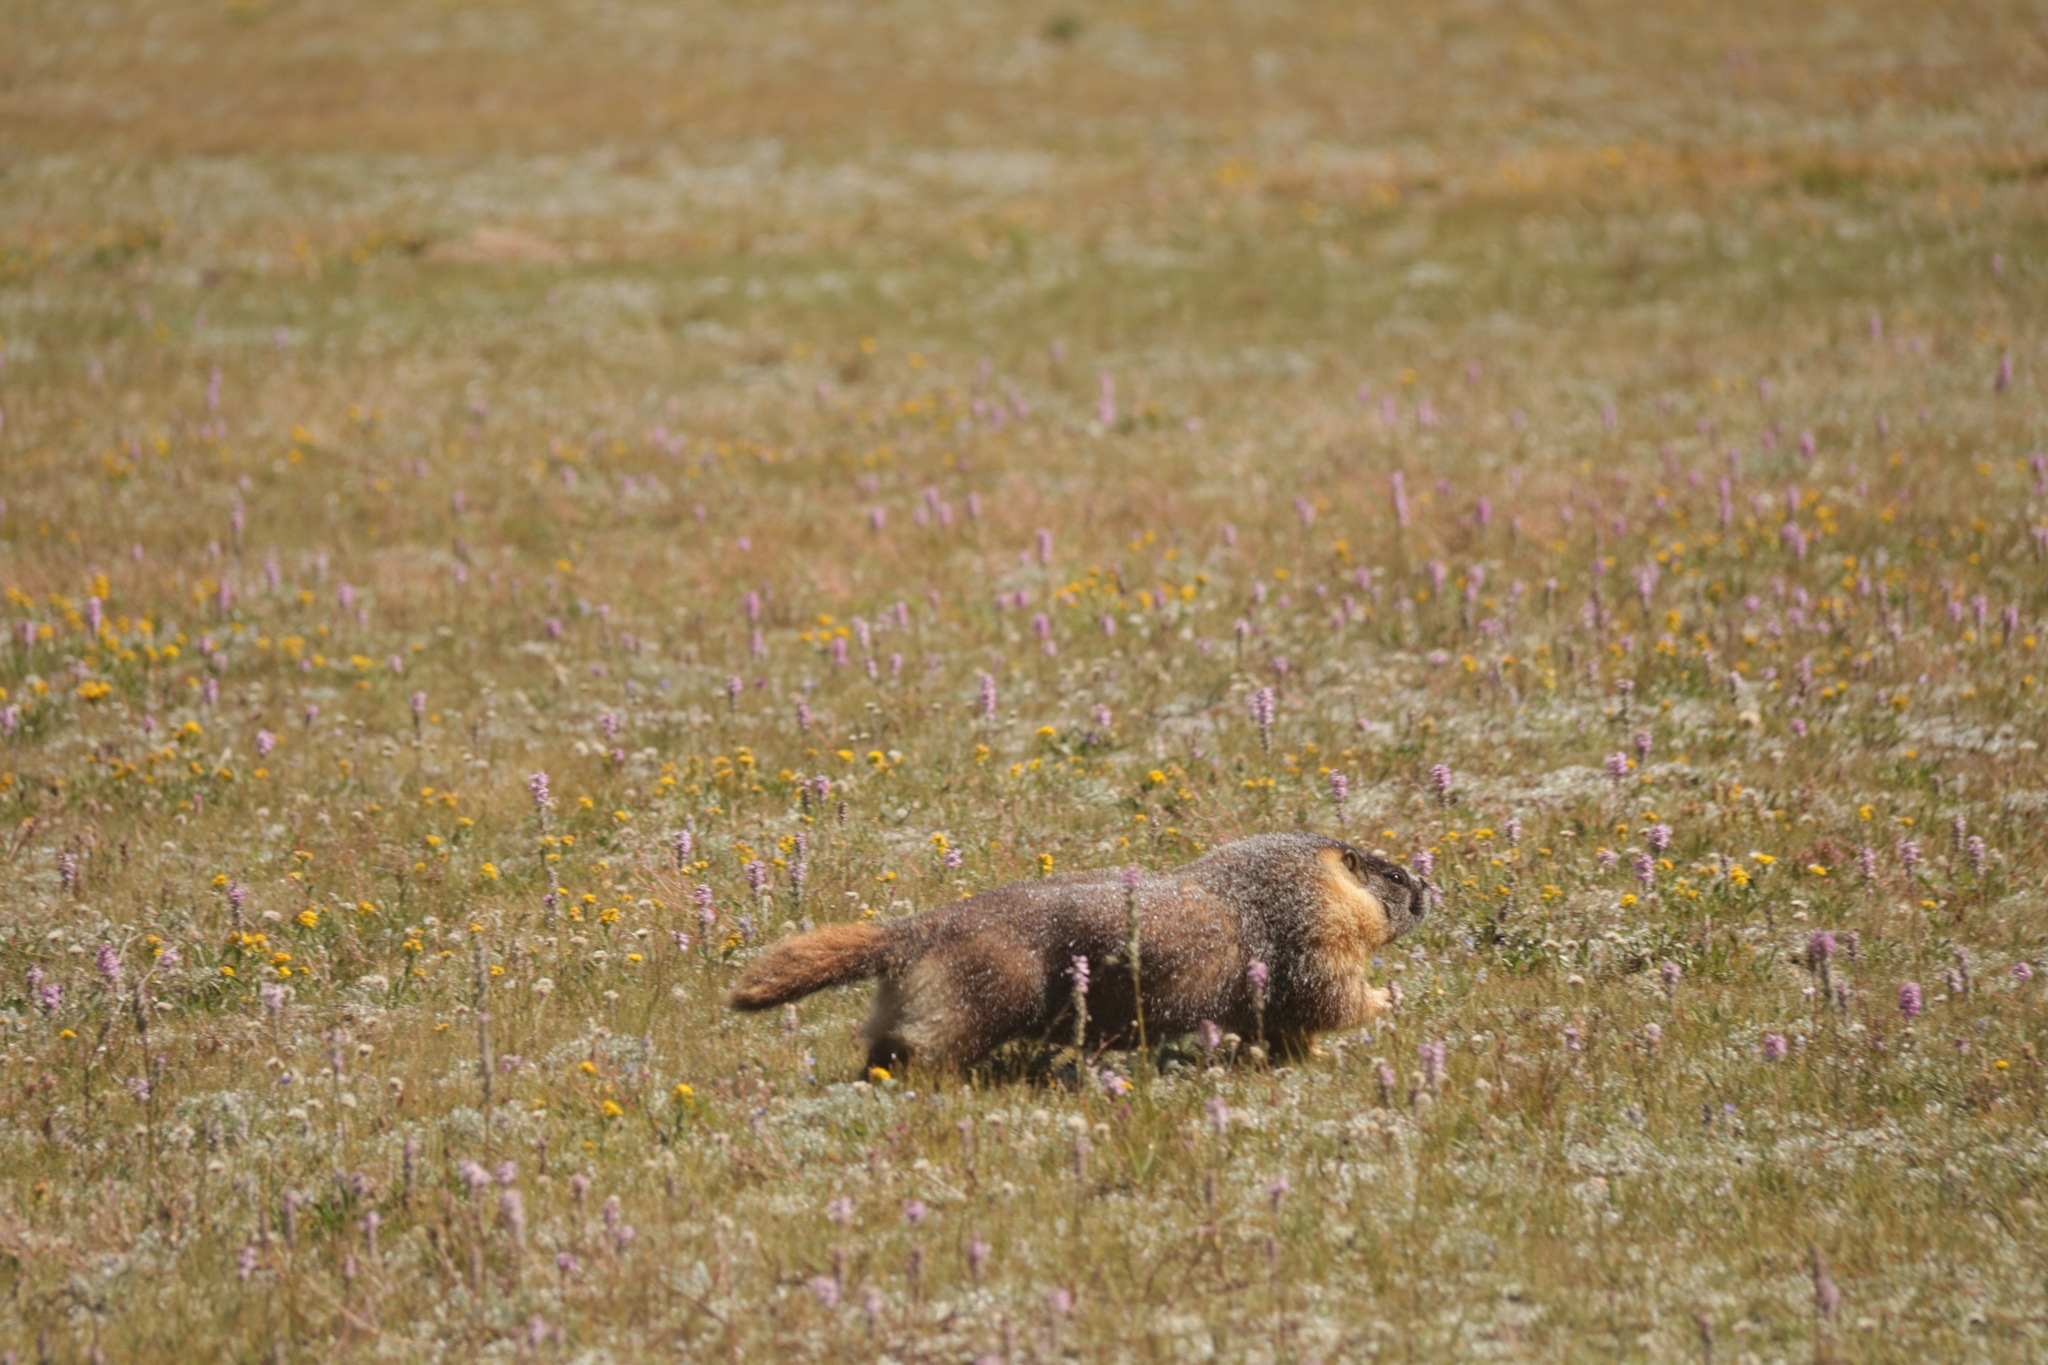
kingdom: Animalia
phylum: Chordata
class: Mammalia
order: Rodentia
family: Sciuridae
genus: Marmota
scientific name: Marmota flaviventris
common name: Yellow-bellied marmot
